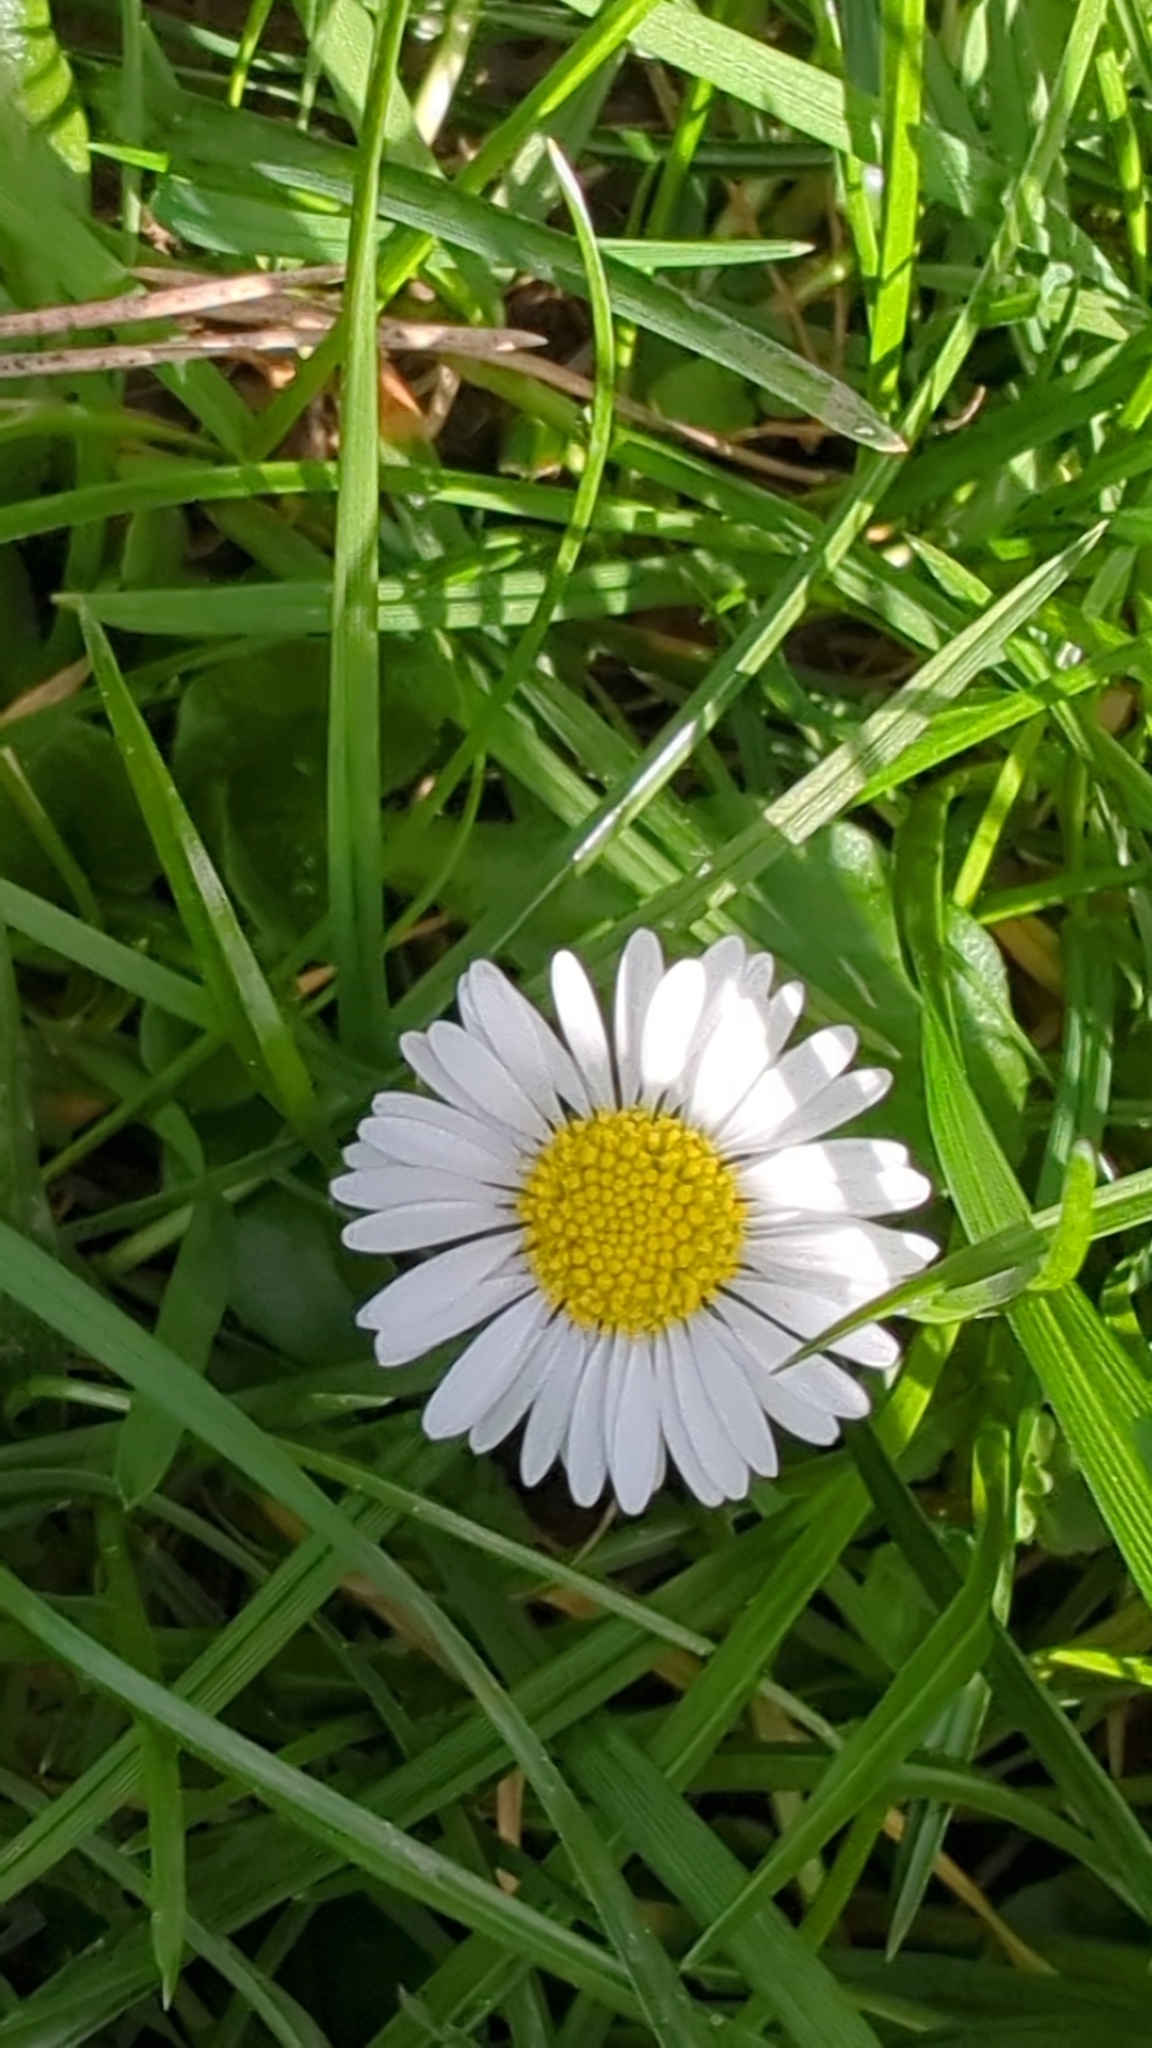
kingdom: Plantae
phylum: Tracheophyta
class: Magnoliopsida
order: Asterales
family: Asteraceae
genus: Bellis
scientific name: Bellis perennis
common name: Lawndaisy
